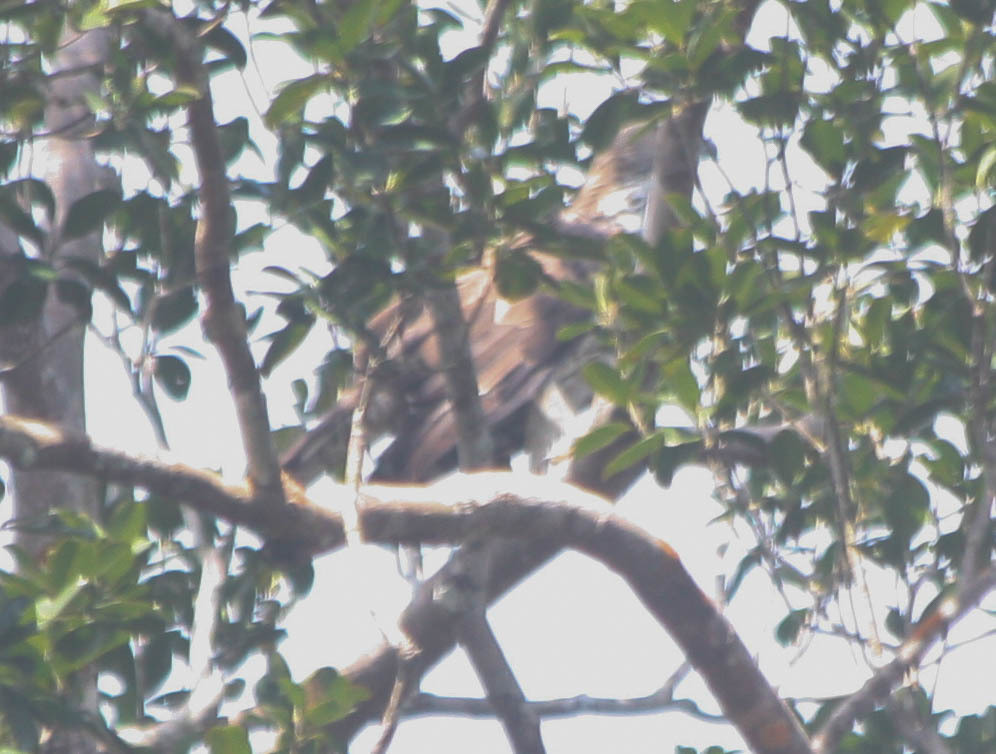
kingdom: Animalia
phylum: Chordata
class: Aves
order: Accipitriformes
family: Accipitridae
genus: Nisaetus
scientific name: Nisaetus cirrhatus
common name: Changeable hawk-eagle
